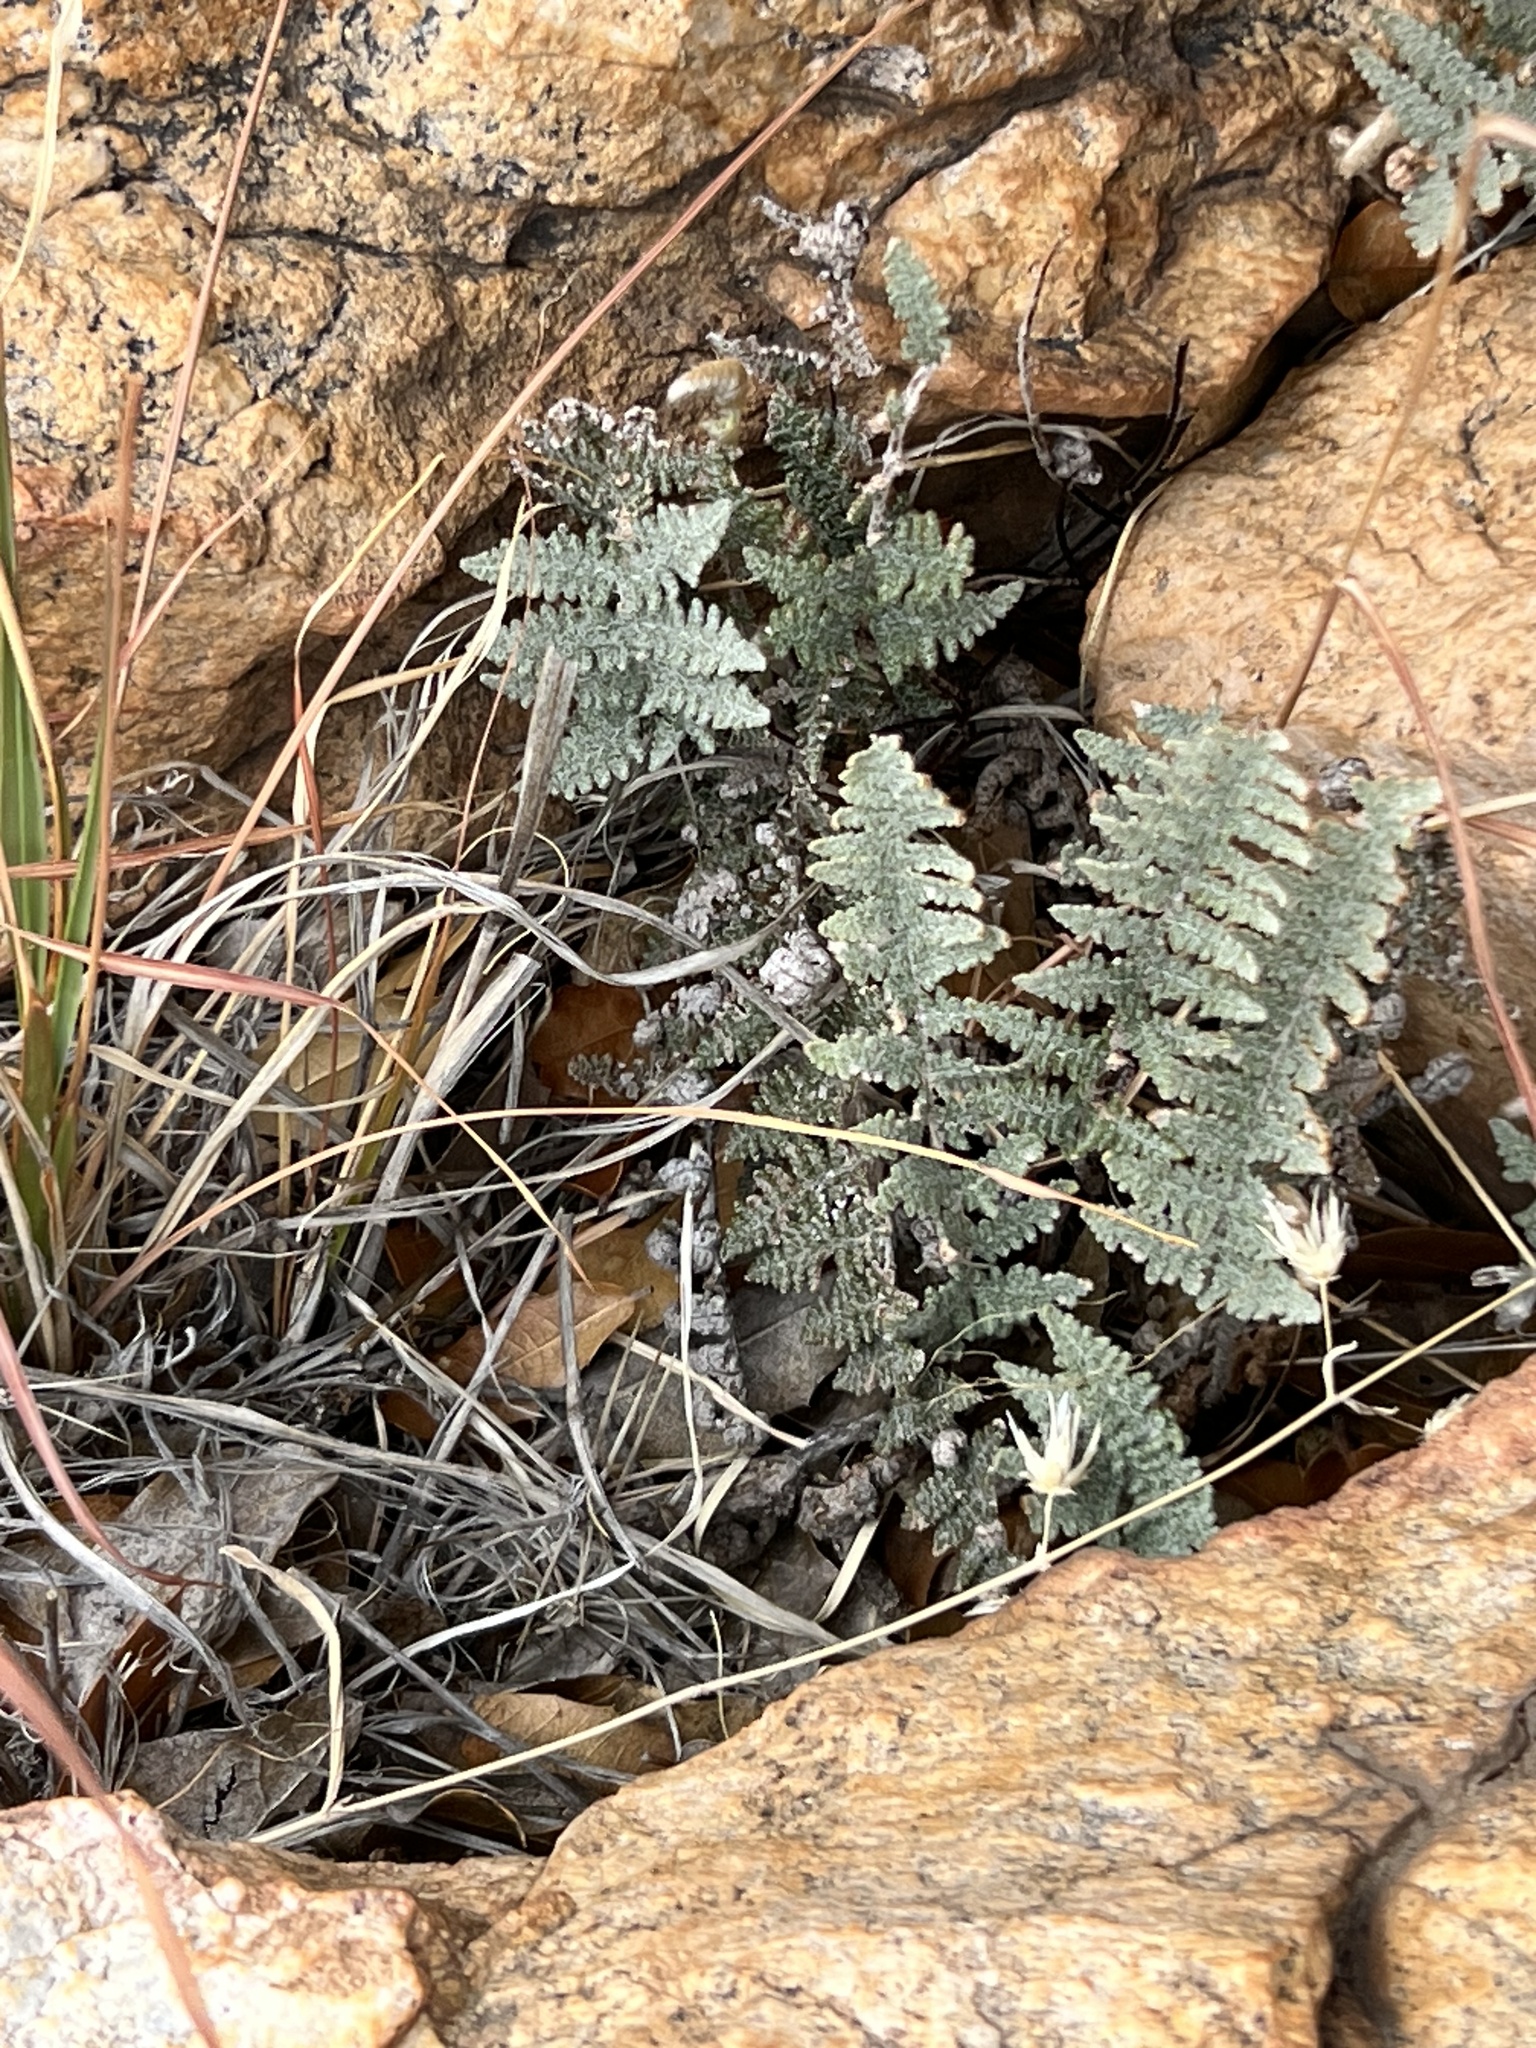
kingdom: Plantae
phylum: Tracheophyta
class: Polypodiopsida
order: Polypodiales
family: Pteridaceae
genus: Myriopteris
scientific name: Myriopteris lindheimeri
